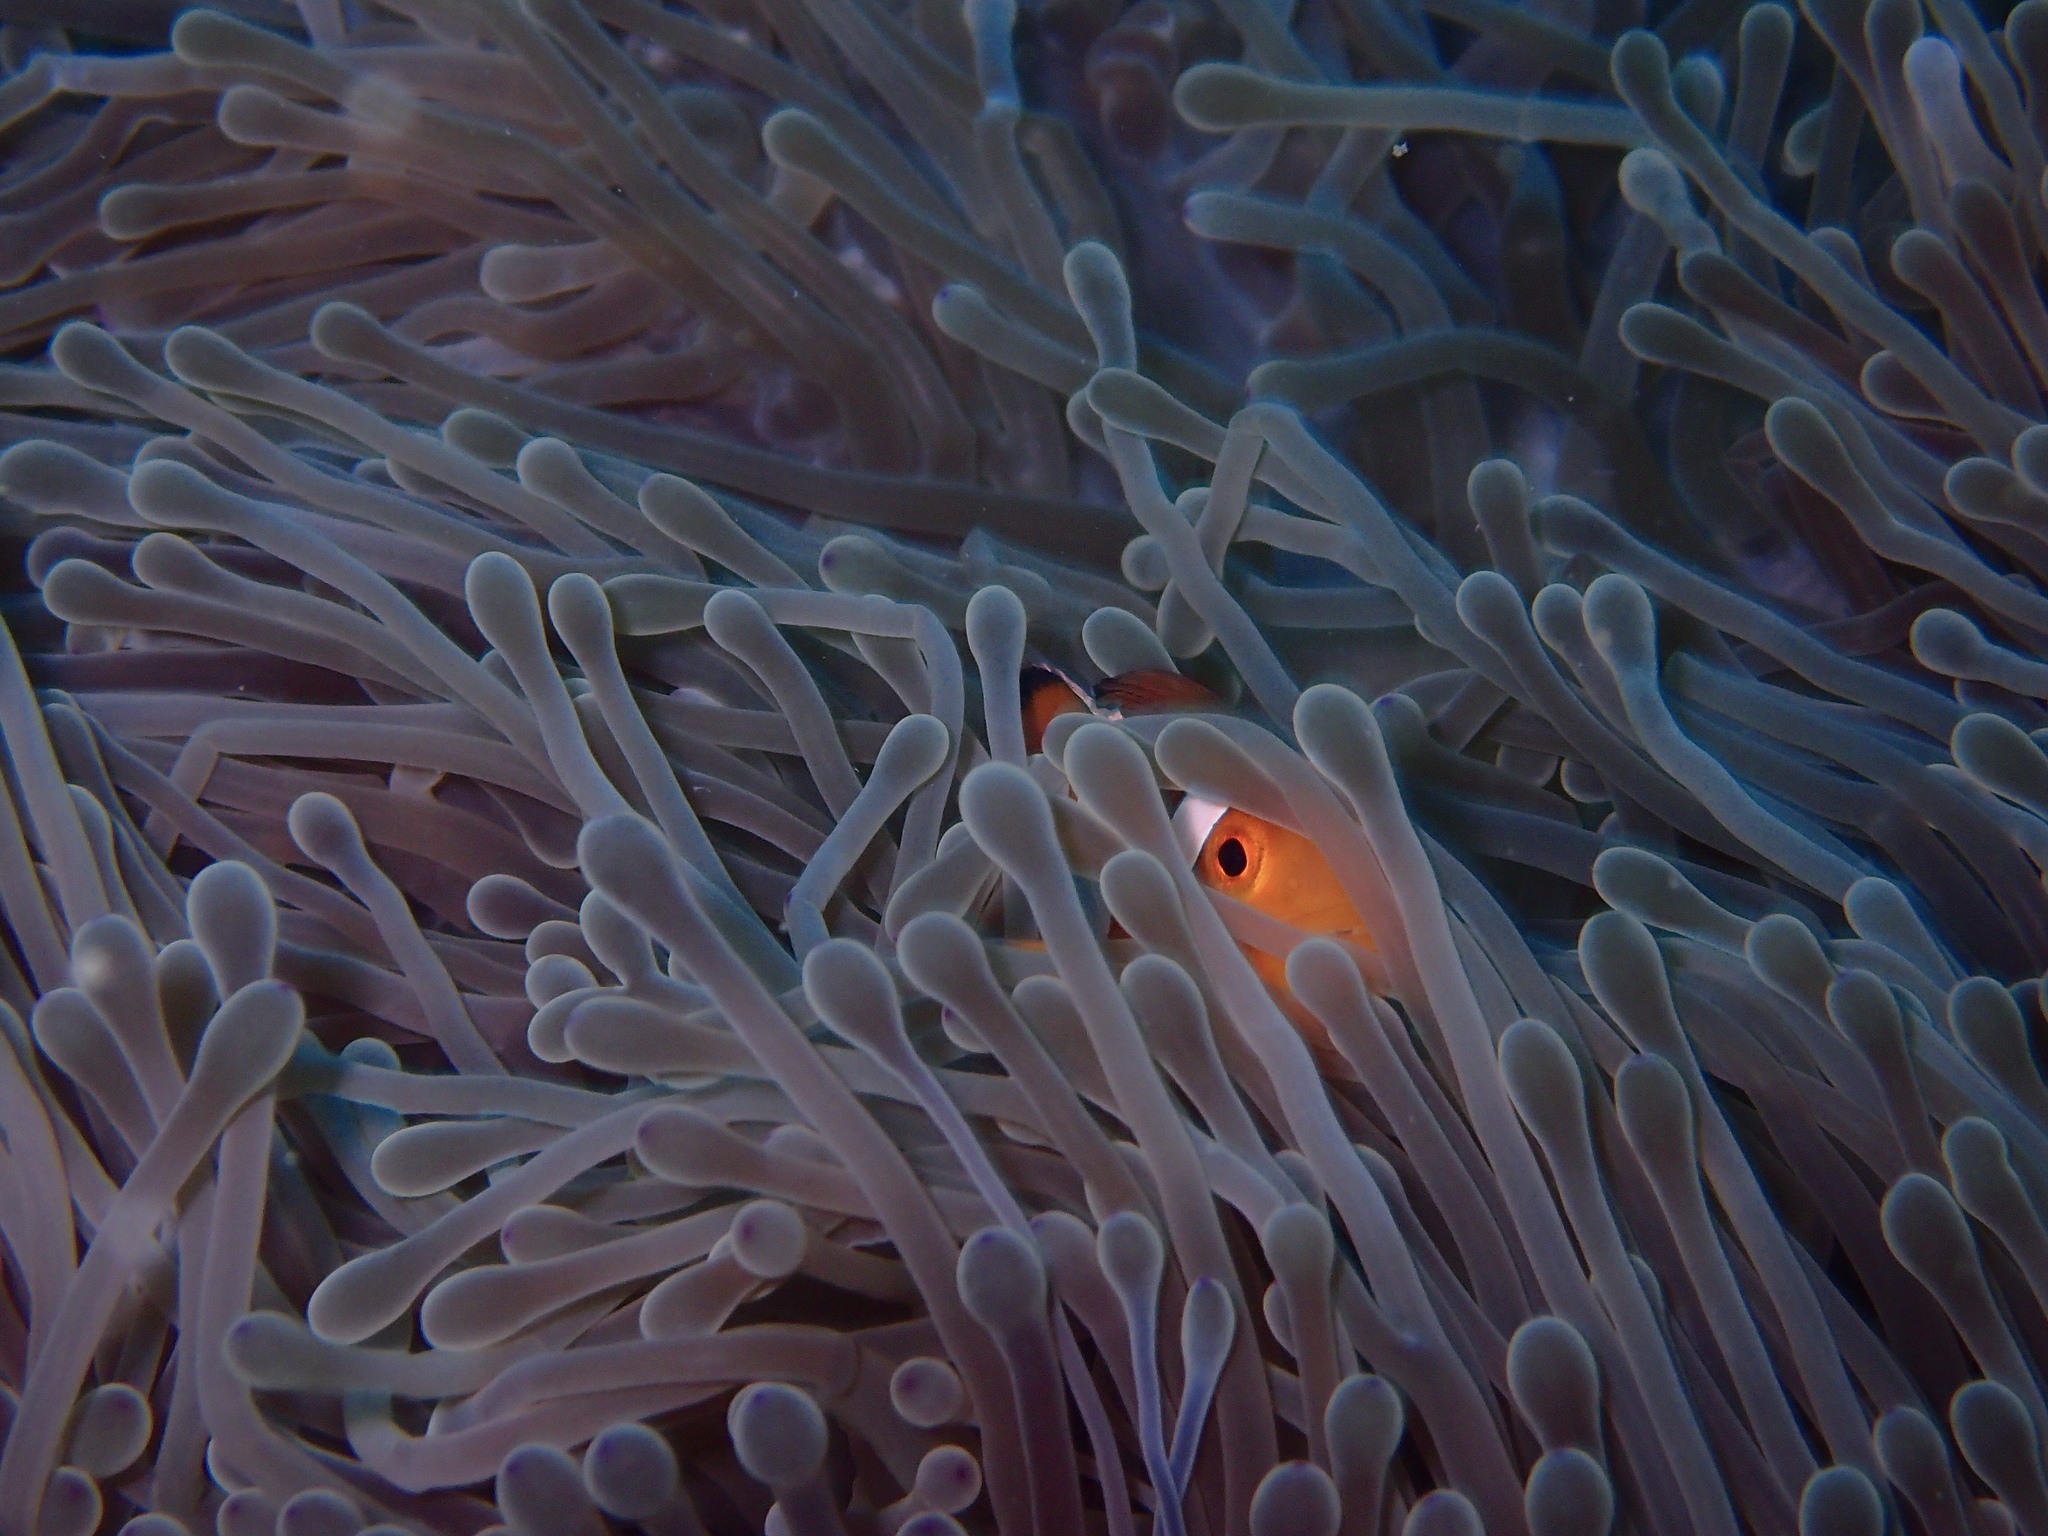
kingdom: Animalia
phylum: Chordata
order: Perciformes
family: Pomacentridae
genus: Amphiprion
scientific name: Amphiprion ocellaris
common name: Clown anemonefish
